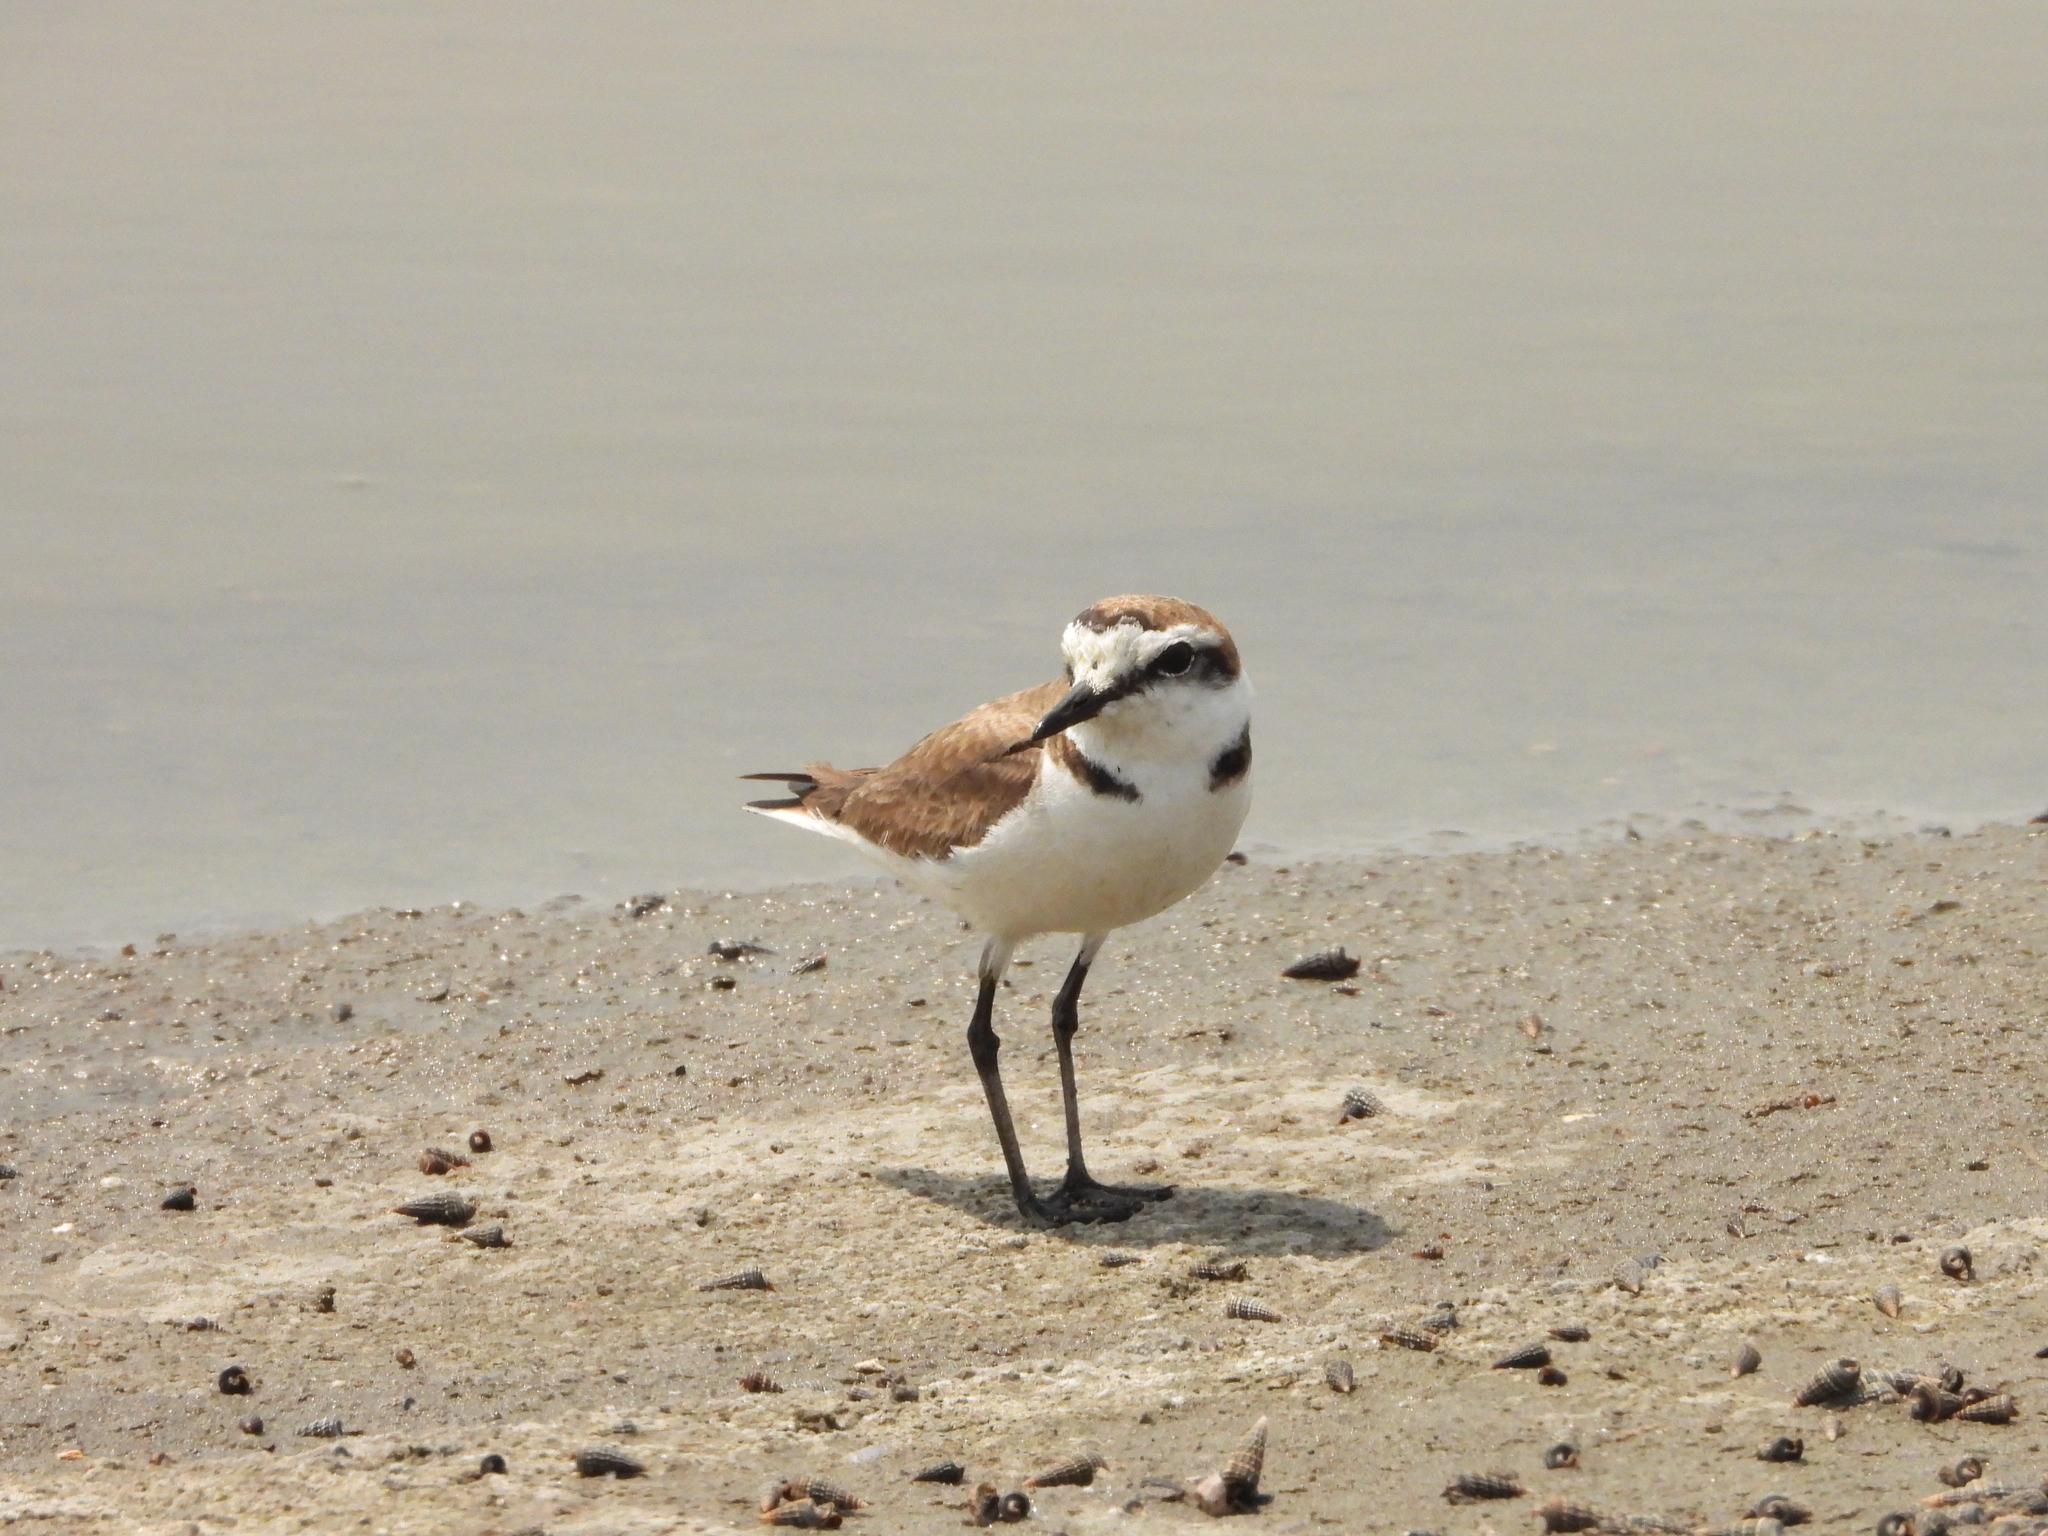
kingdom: Animalia
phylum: Chordata
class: Aves
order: Charadriiformes
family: Charadriidae
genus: Charadrius
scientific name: Charadrius alexandrinus
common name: Kentish plover
